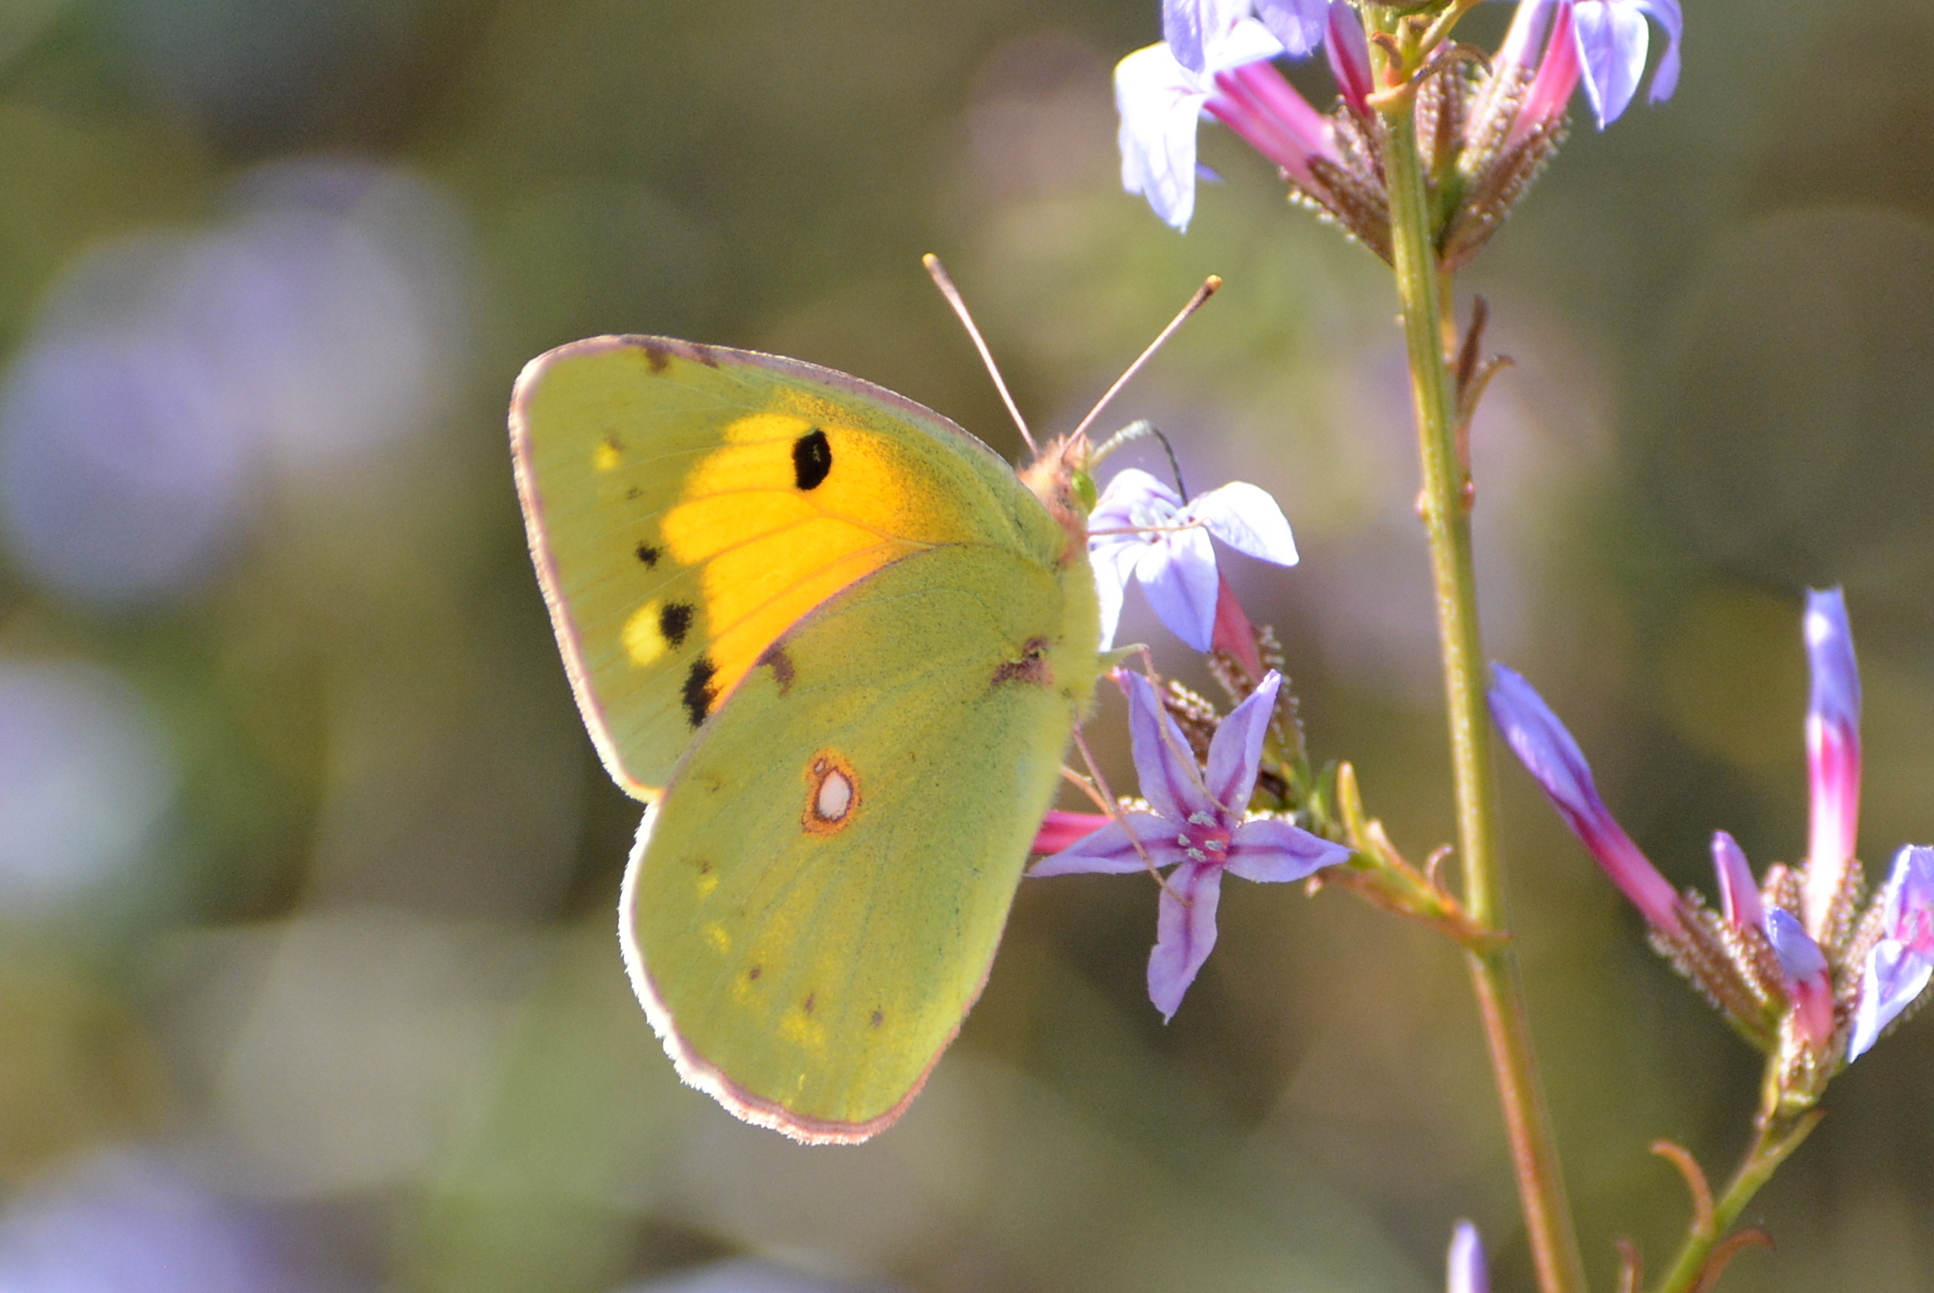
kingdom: Animalia
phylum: Arthropoda
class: Insecta
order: Lepidoptera
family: Pieridae
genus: Colias
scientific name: Colias croceus
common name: Clouded yellow
